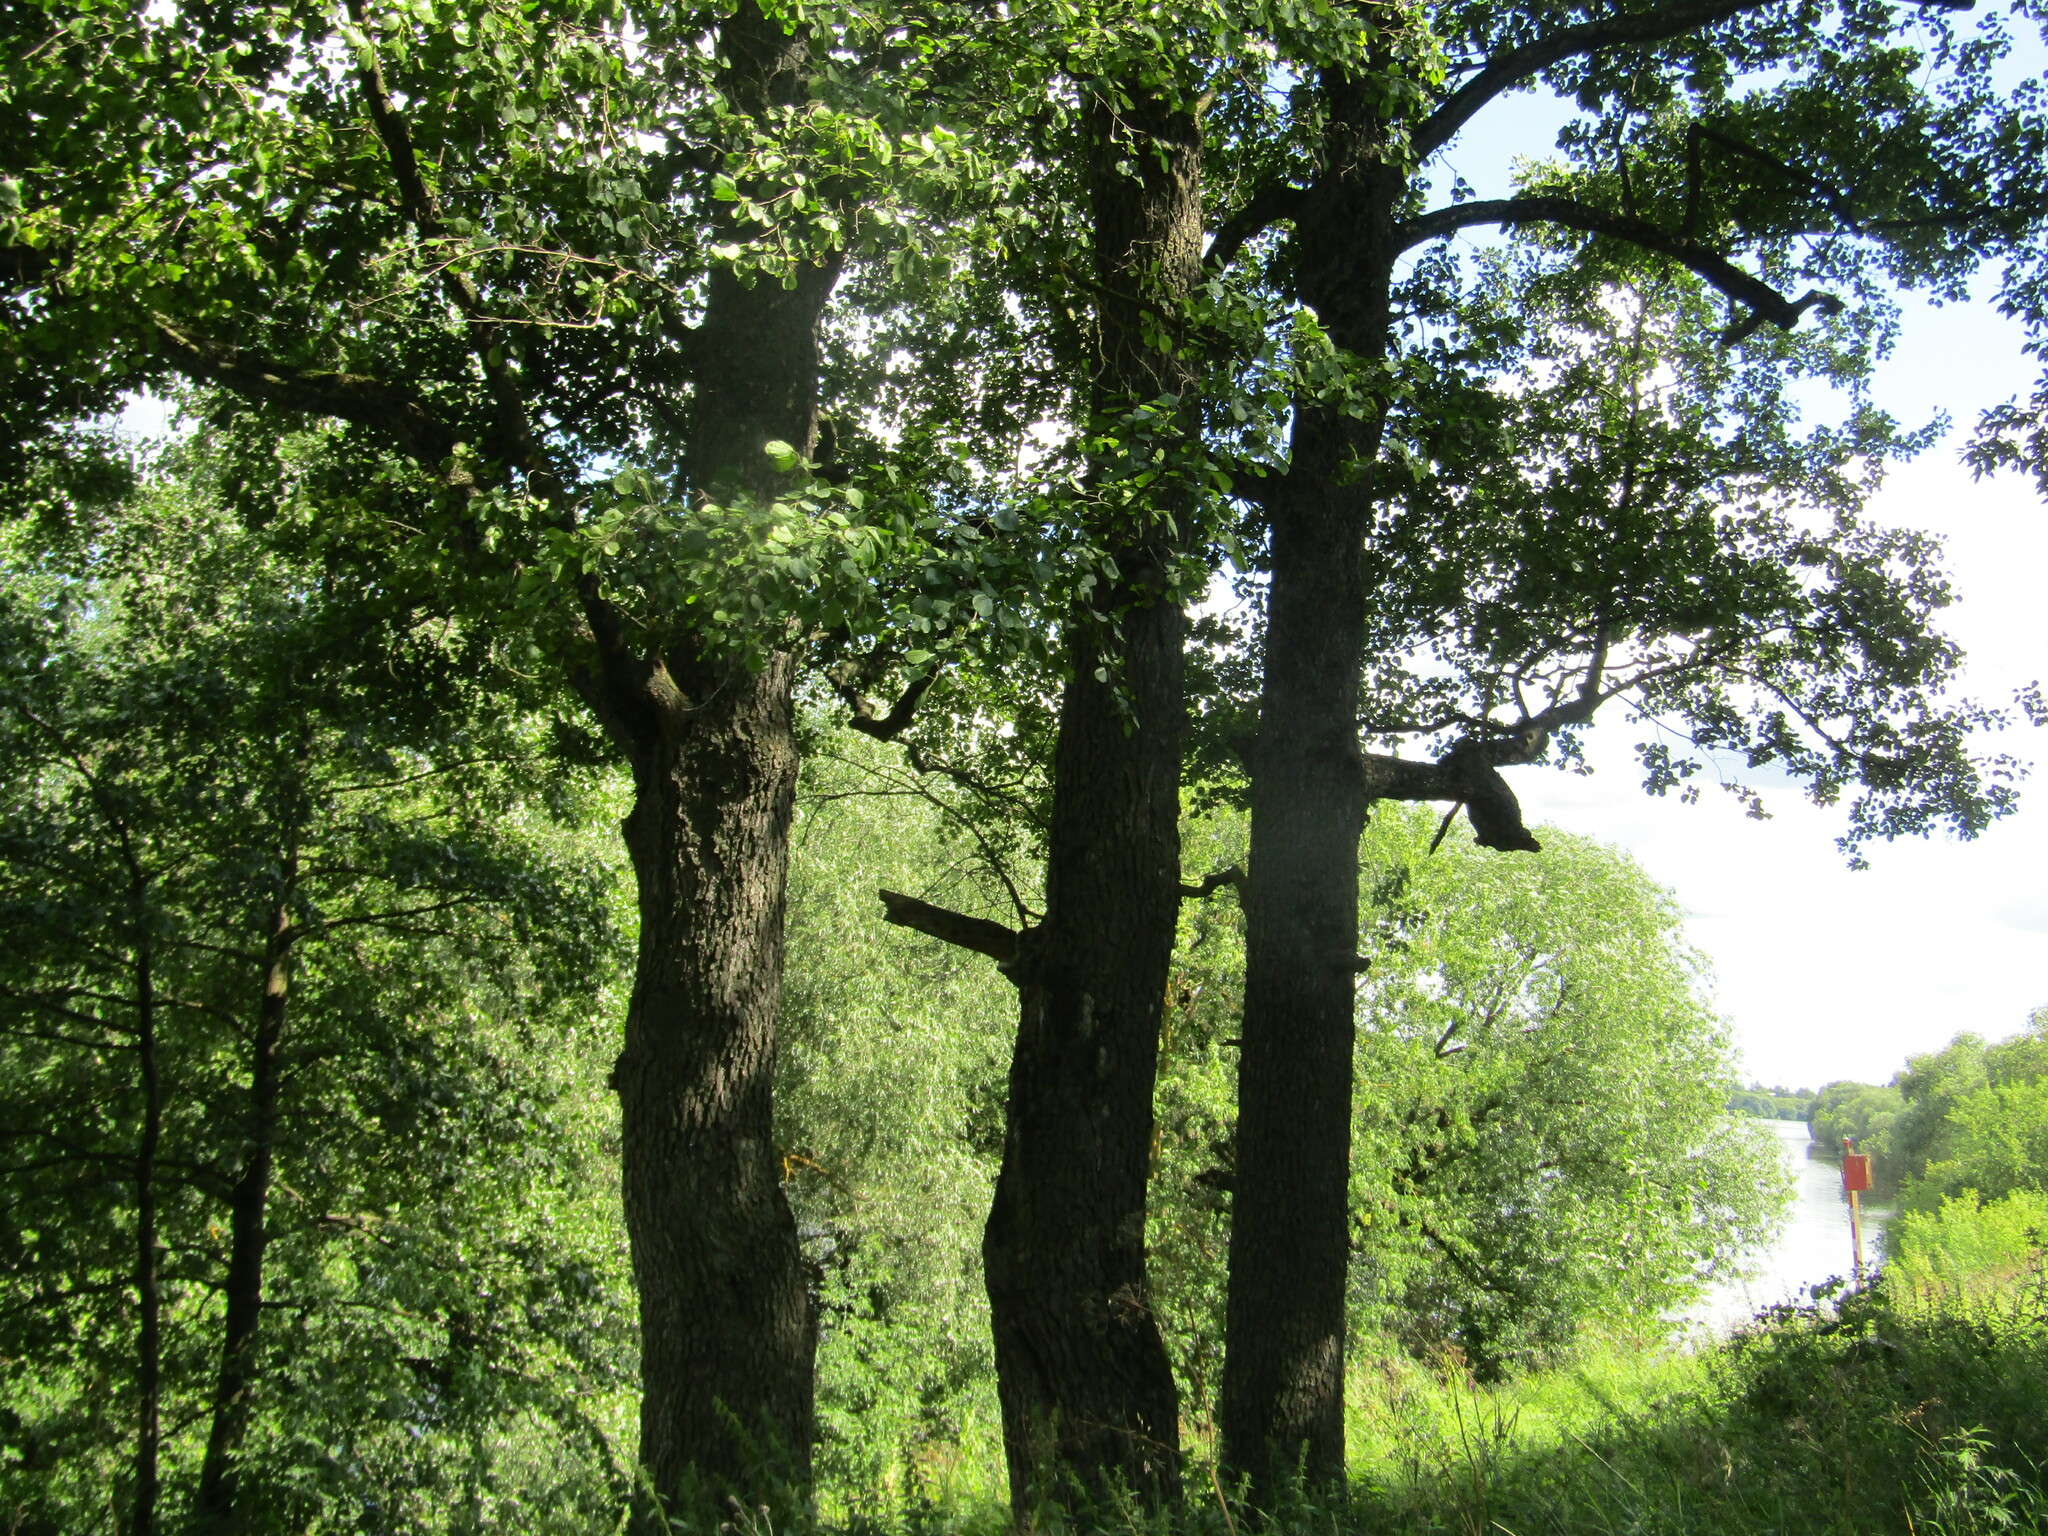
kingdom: Plantae
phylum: Tracheophyta
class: Magnoliopsida
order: Fagales
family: Betulaceae
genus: Alnus
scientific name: Alnus glutinosa
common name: Black alder
